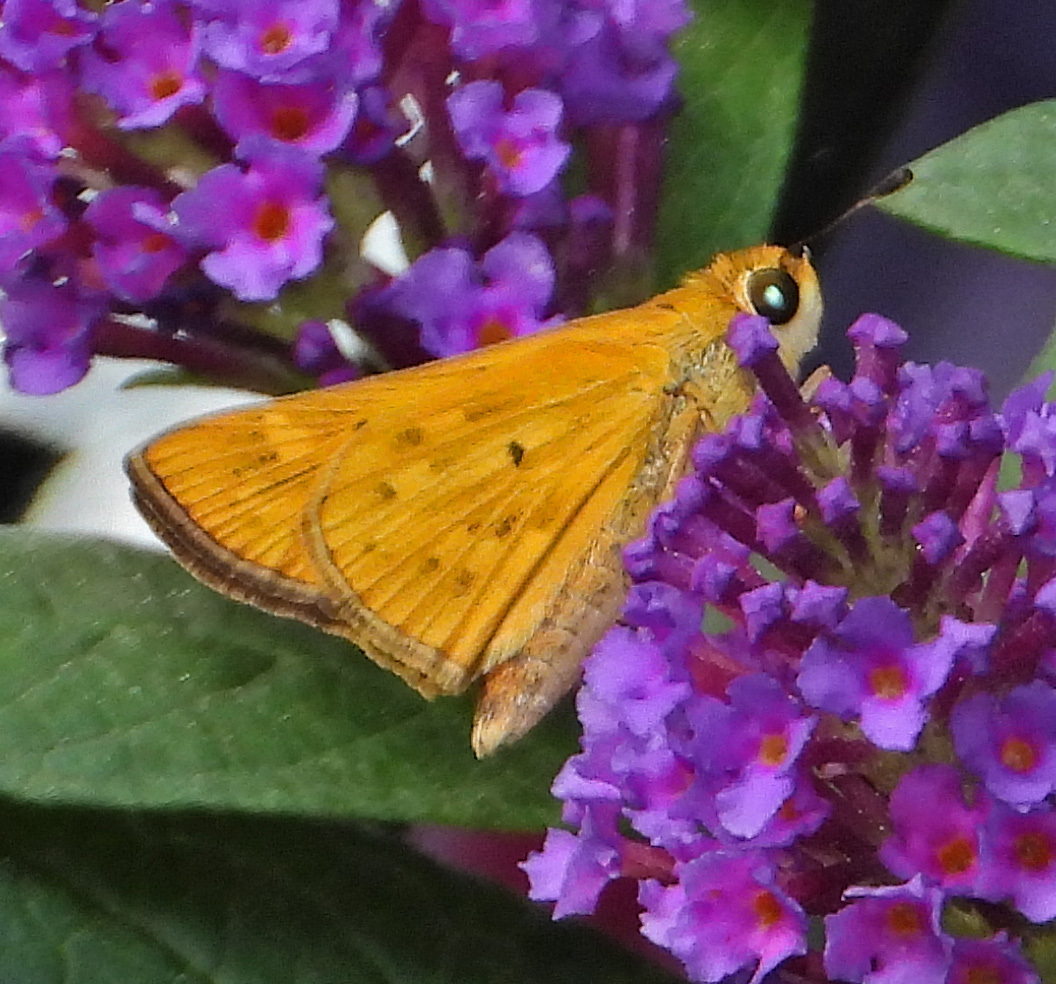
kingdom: Animalia
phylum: Arthropoda
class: Insecta
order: Lepidoptera
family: Hesperiidae
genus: Hylephila
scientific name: Hylephila phyleus
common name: Fiery skipper
